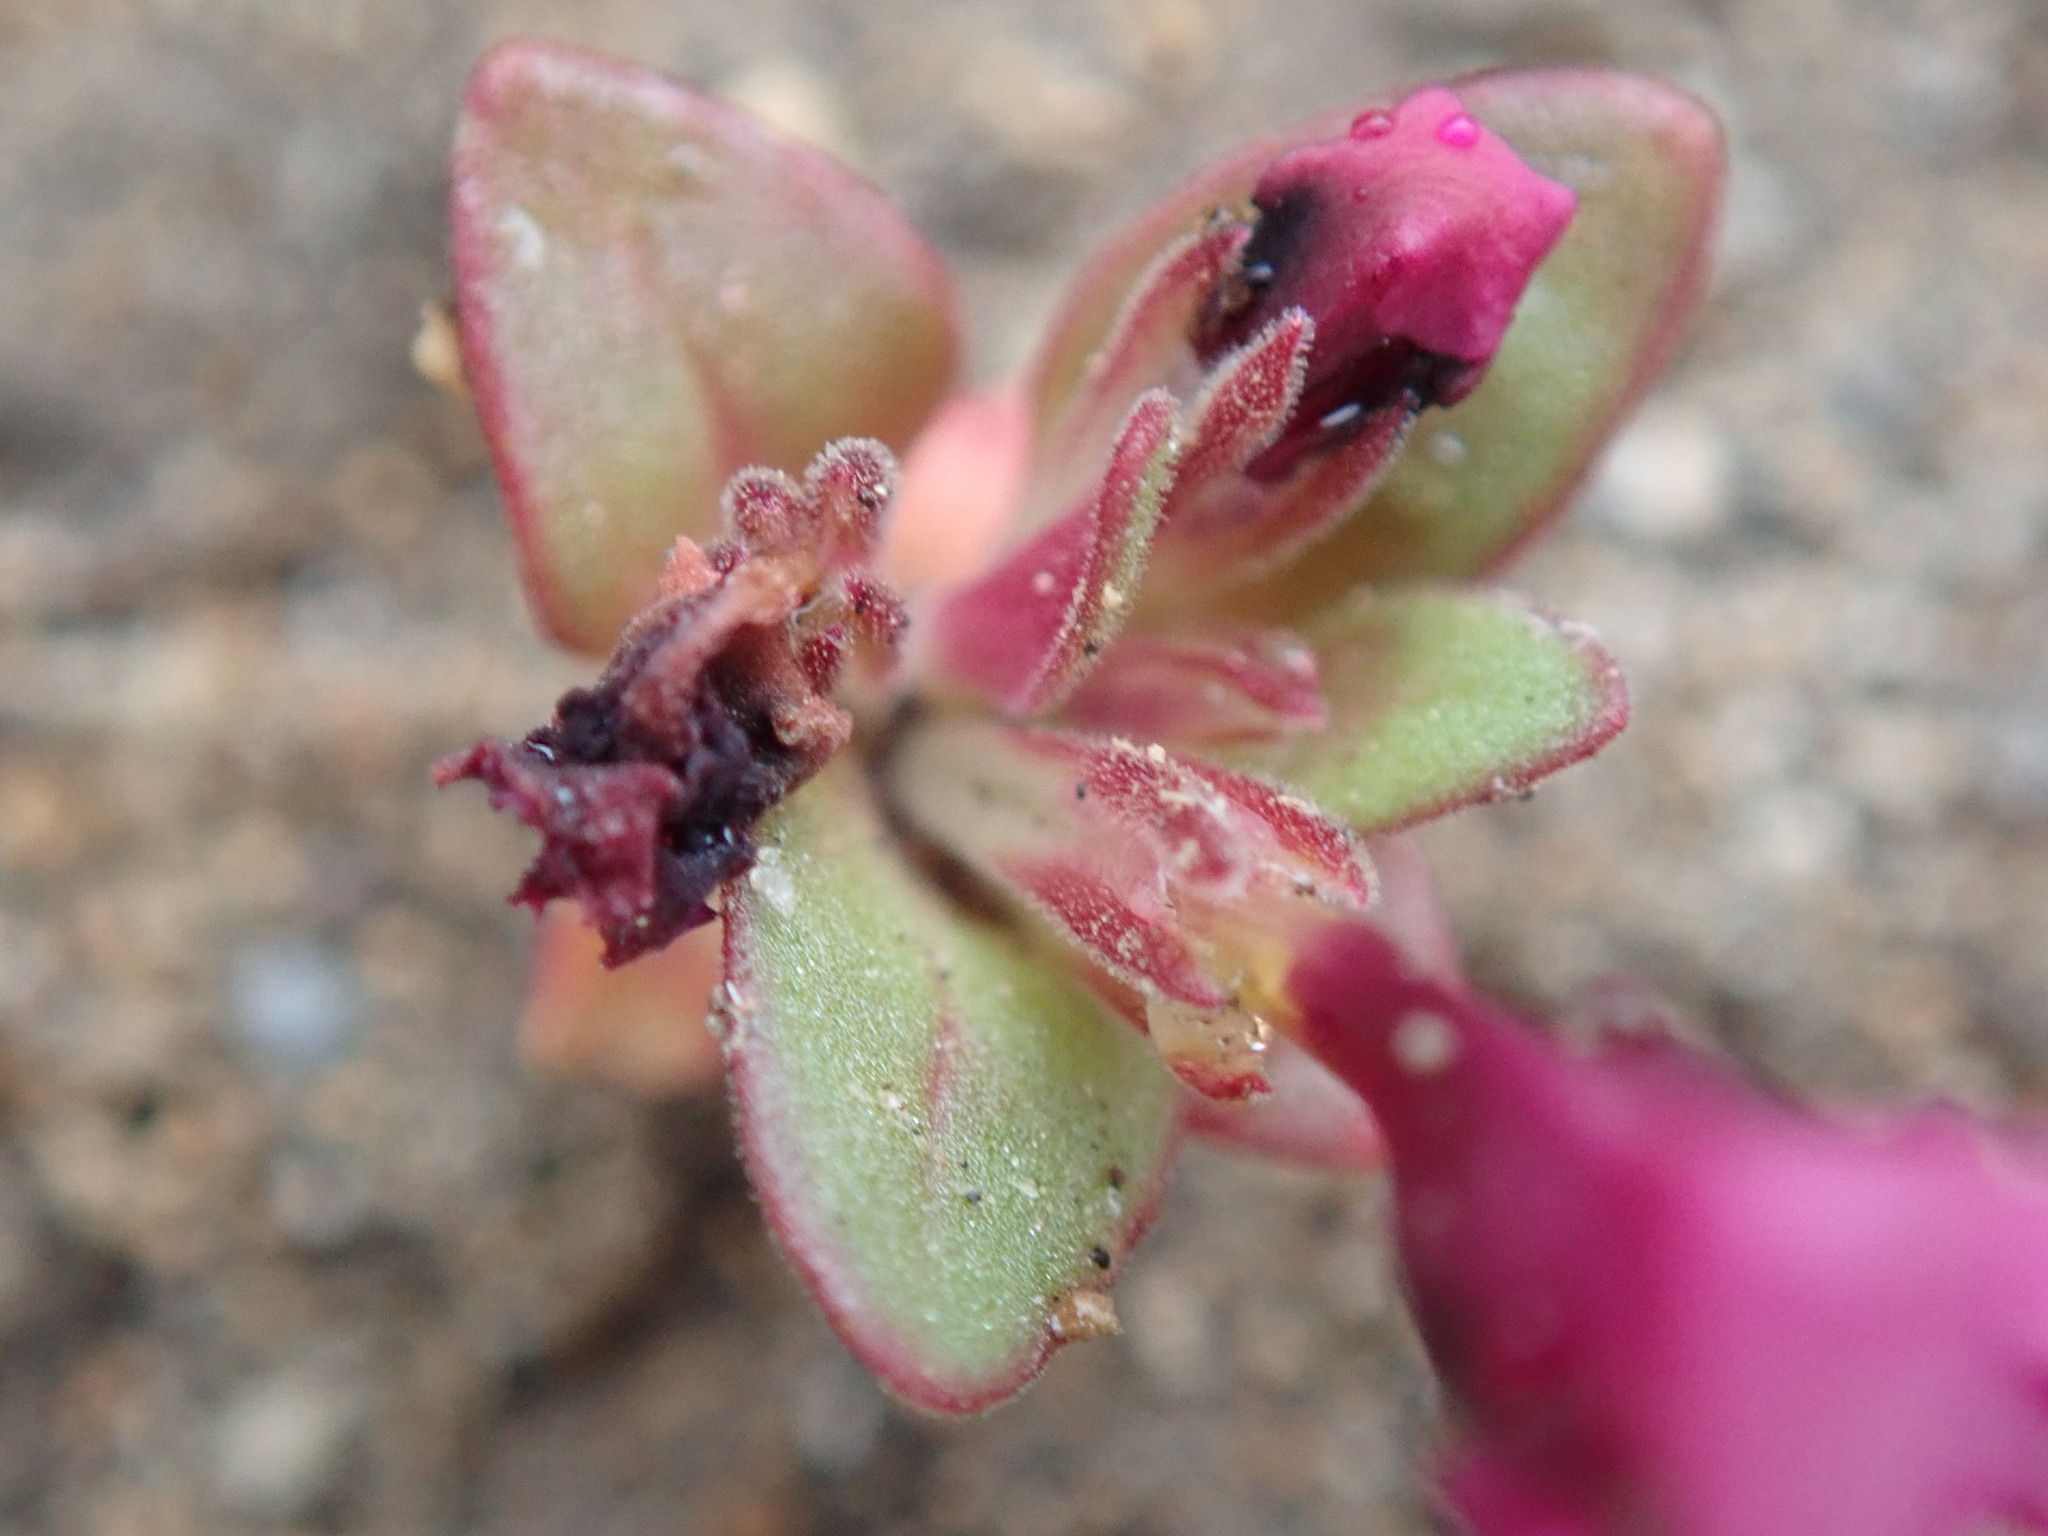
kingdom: Plantae
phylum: Tracheophyta
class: Magnoliopsida
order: Lamiales
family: Phrymaceae
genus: Diplacus
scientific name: Diplacus nanus
